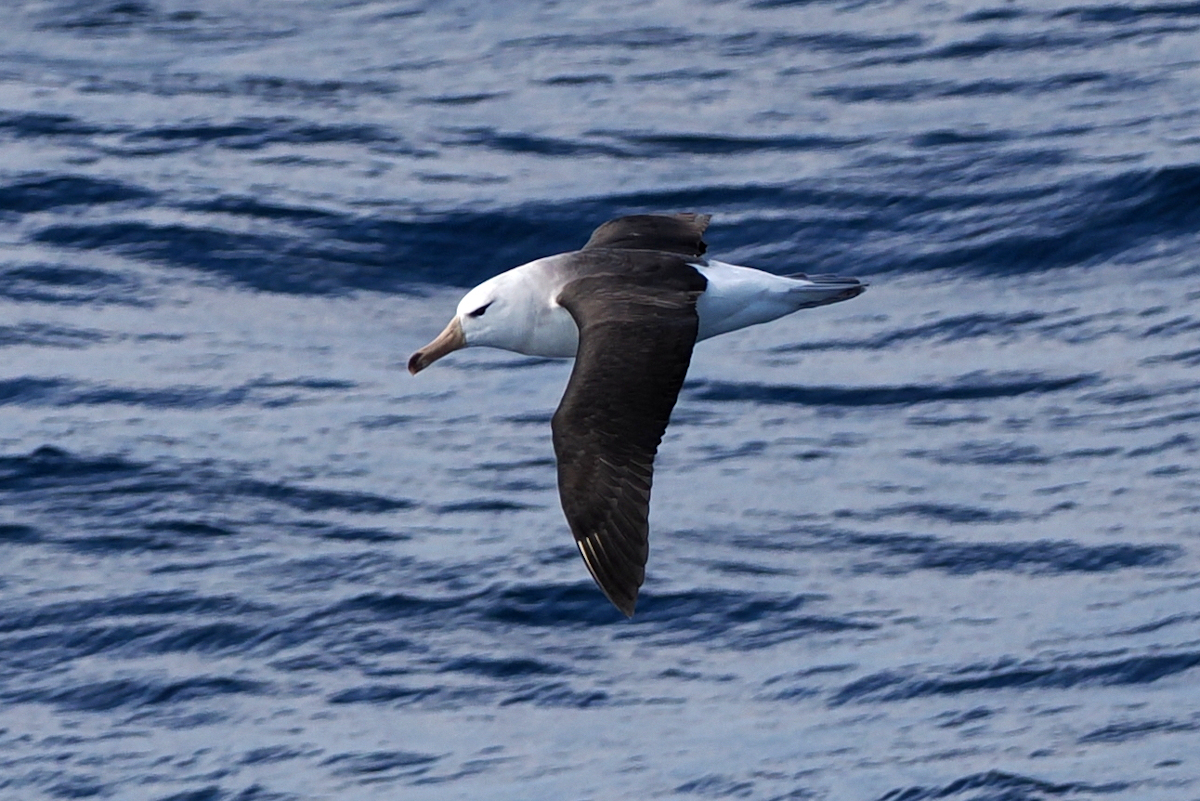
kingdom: Animalia
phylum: Chordata
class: Aves
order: Procellariiformes
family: Diomedeidae
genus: Thalassarche
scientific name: Thalassarche melanophris
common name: Black-browed albatross
